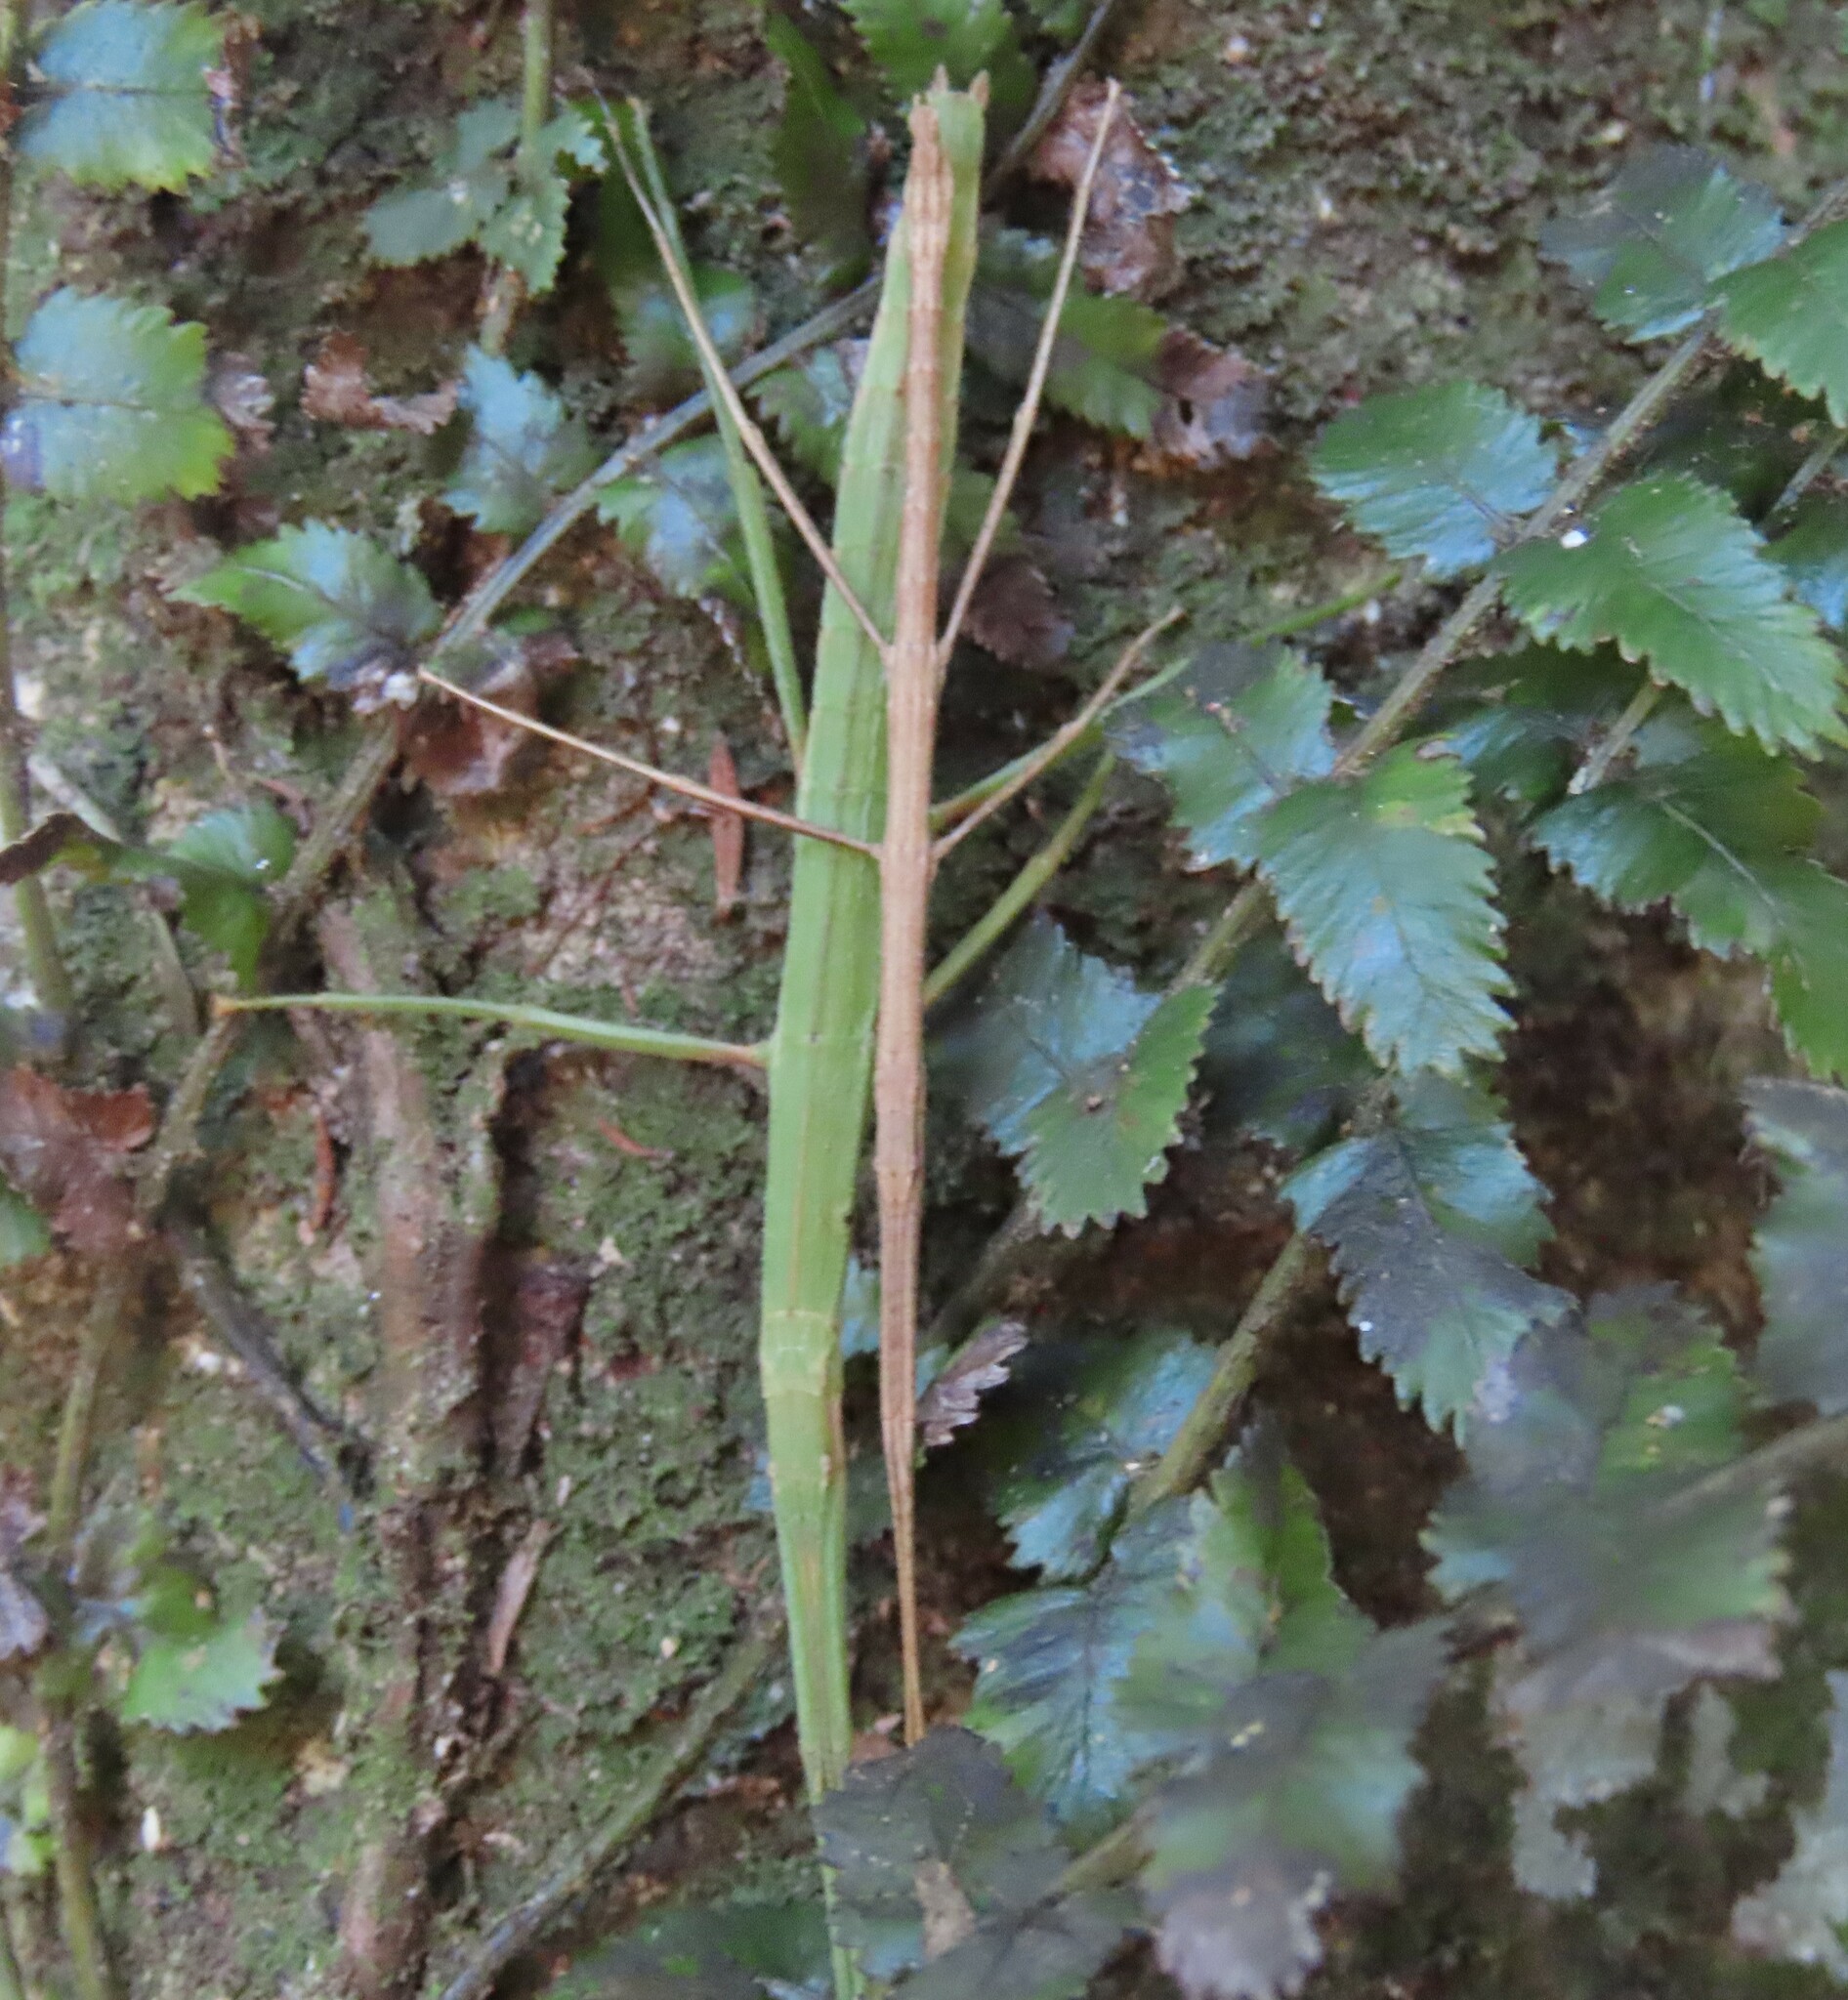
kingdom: Animalia
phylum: Arthropoda
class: Insecta
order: Phasmida
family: Phasmatidae
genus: Tectarchus
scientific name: Tectarchus huttoni
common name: The common ridge-backed stick insect
